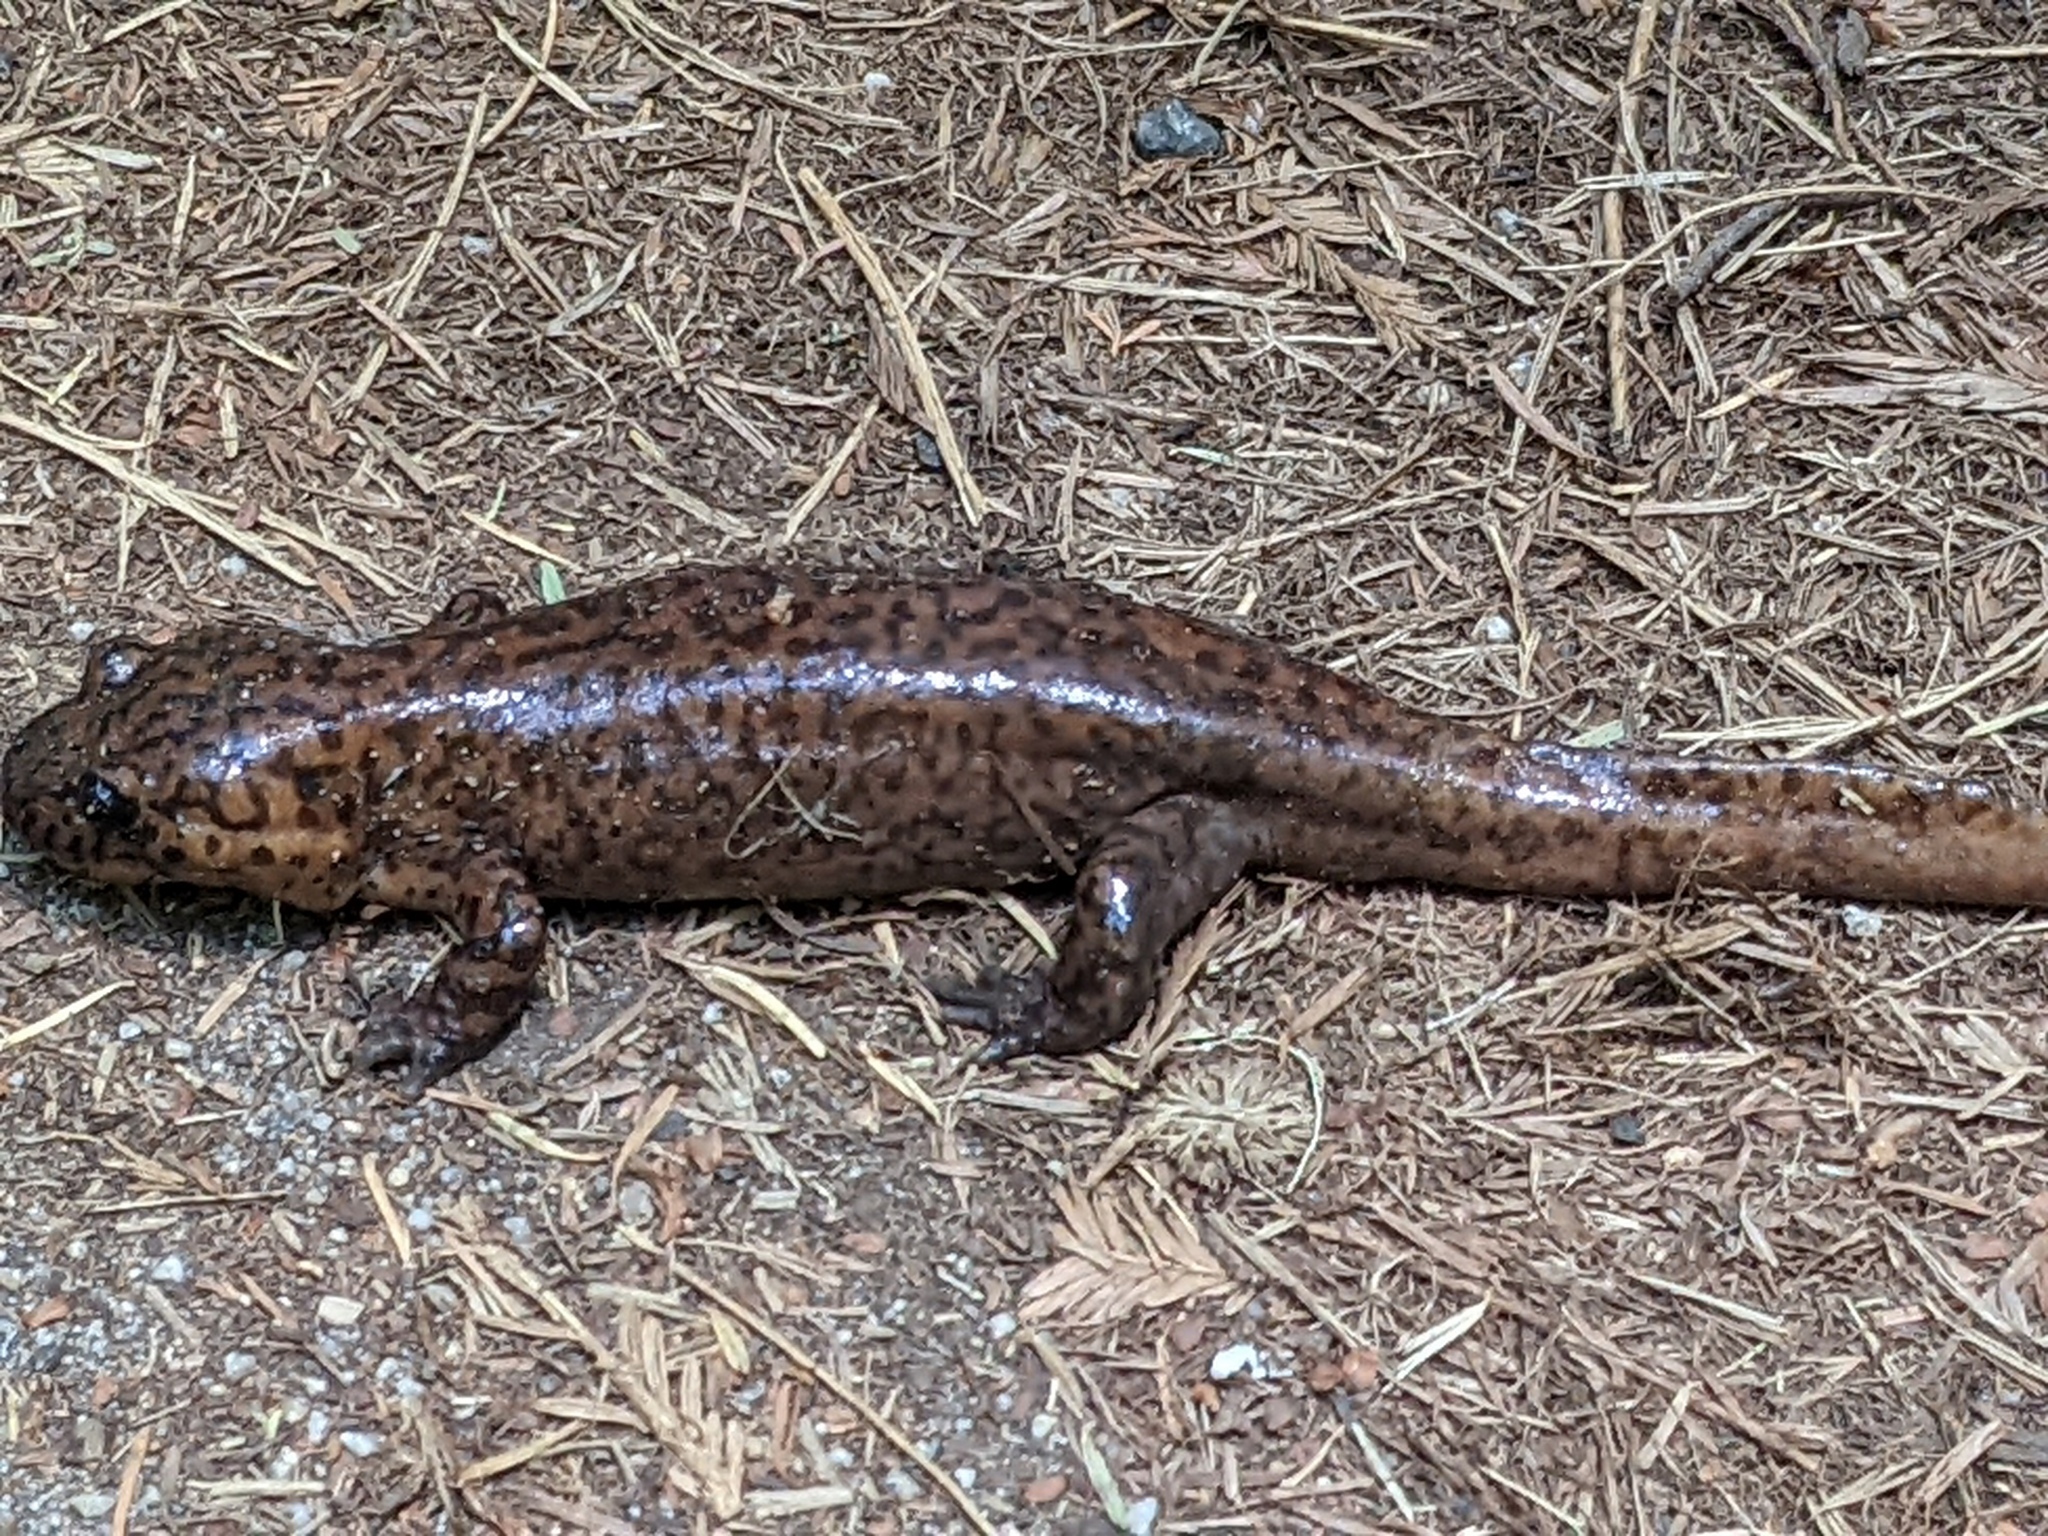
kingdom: Animalia
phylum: Chordata
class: Amphibia
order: Caudata
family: Ambystomatidae
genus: Dicamptodon
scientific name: Dicamptodon ensatus
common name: California giant salamander
